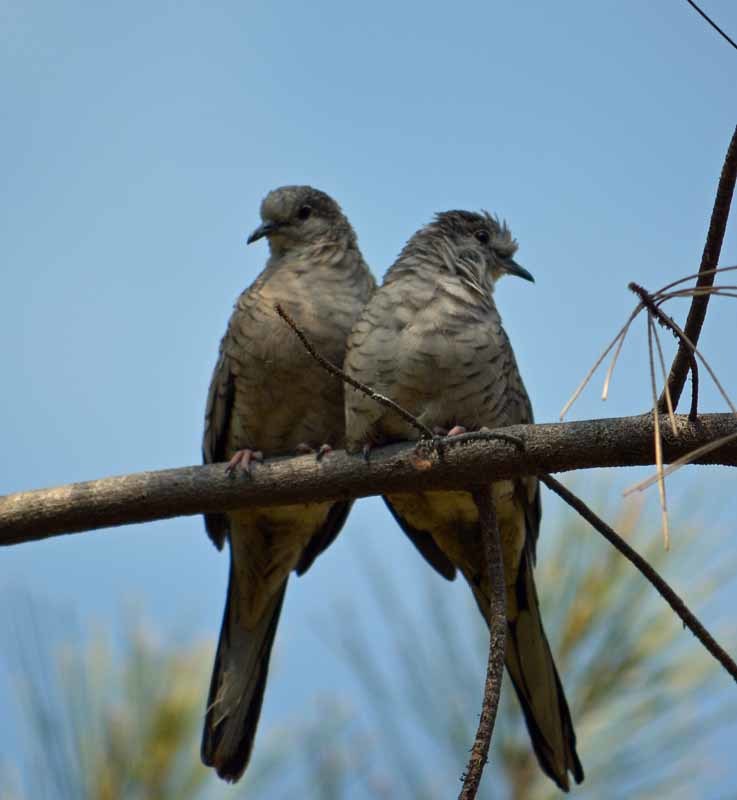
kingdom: Animalia
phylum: Chordata
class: Aves
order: Columbiformes
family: Columbidae
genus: Columbina
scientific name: Columbina inca
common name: Inca dove
